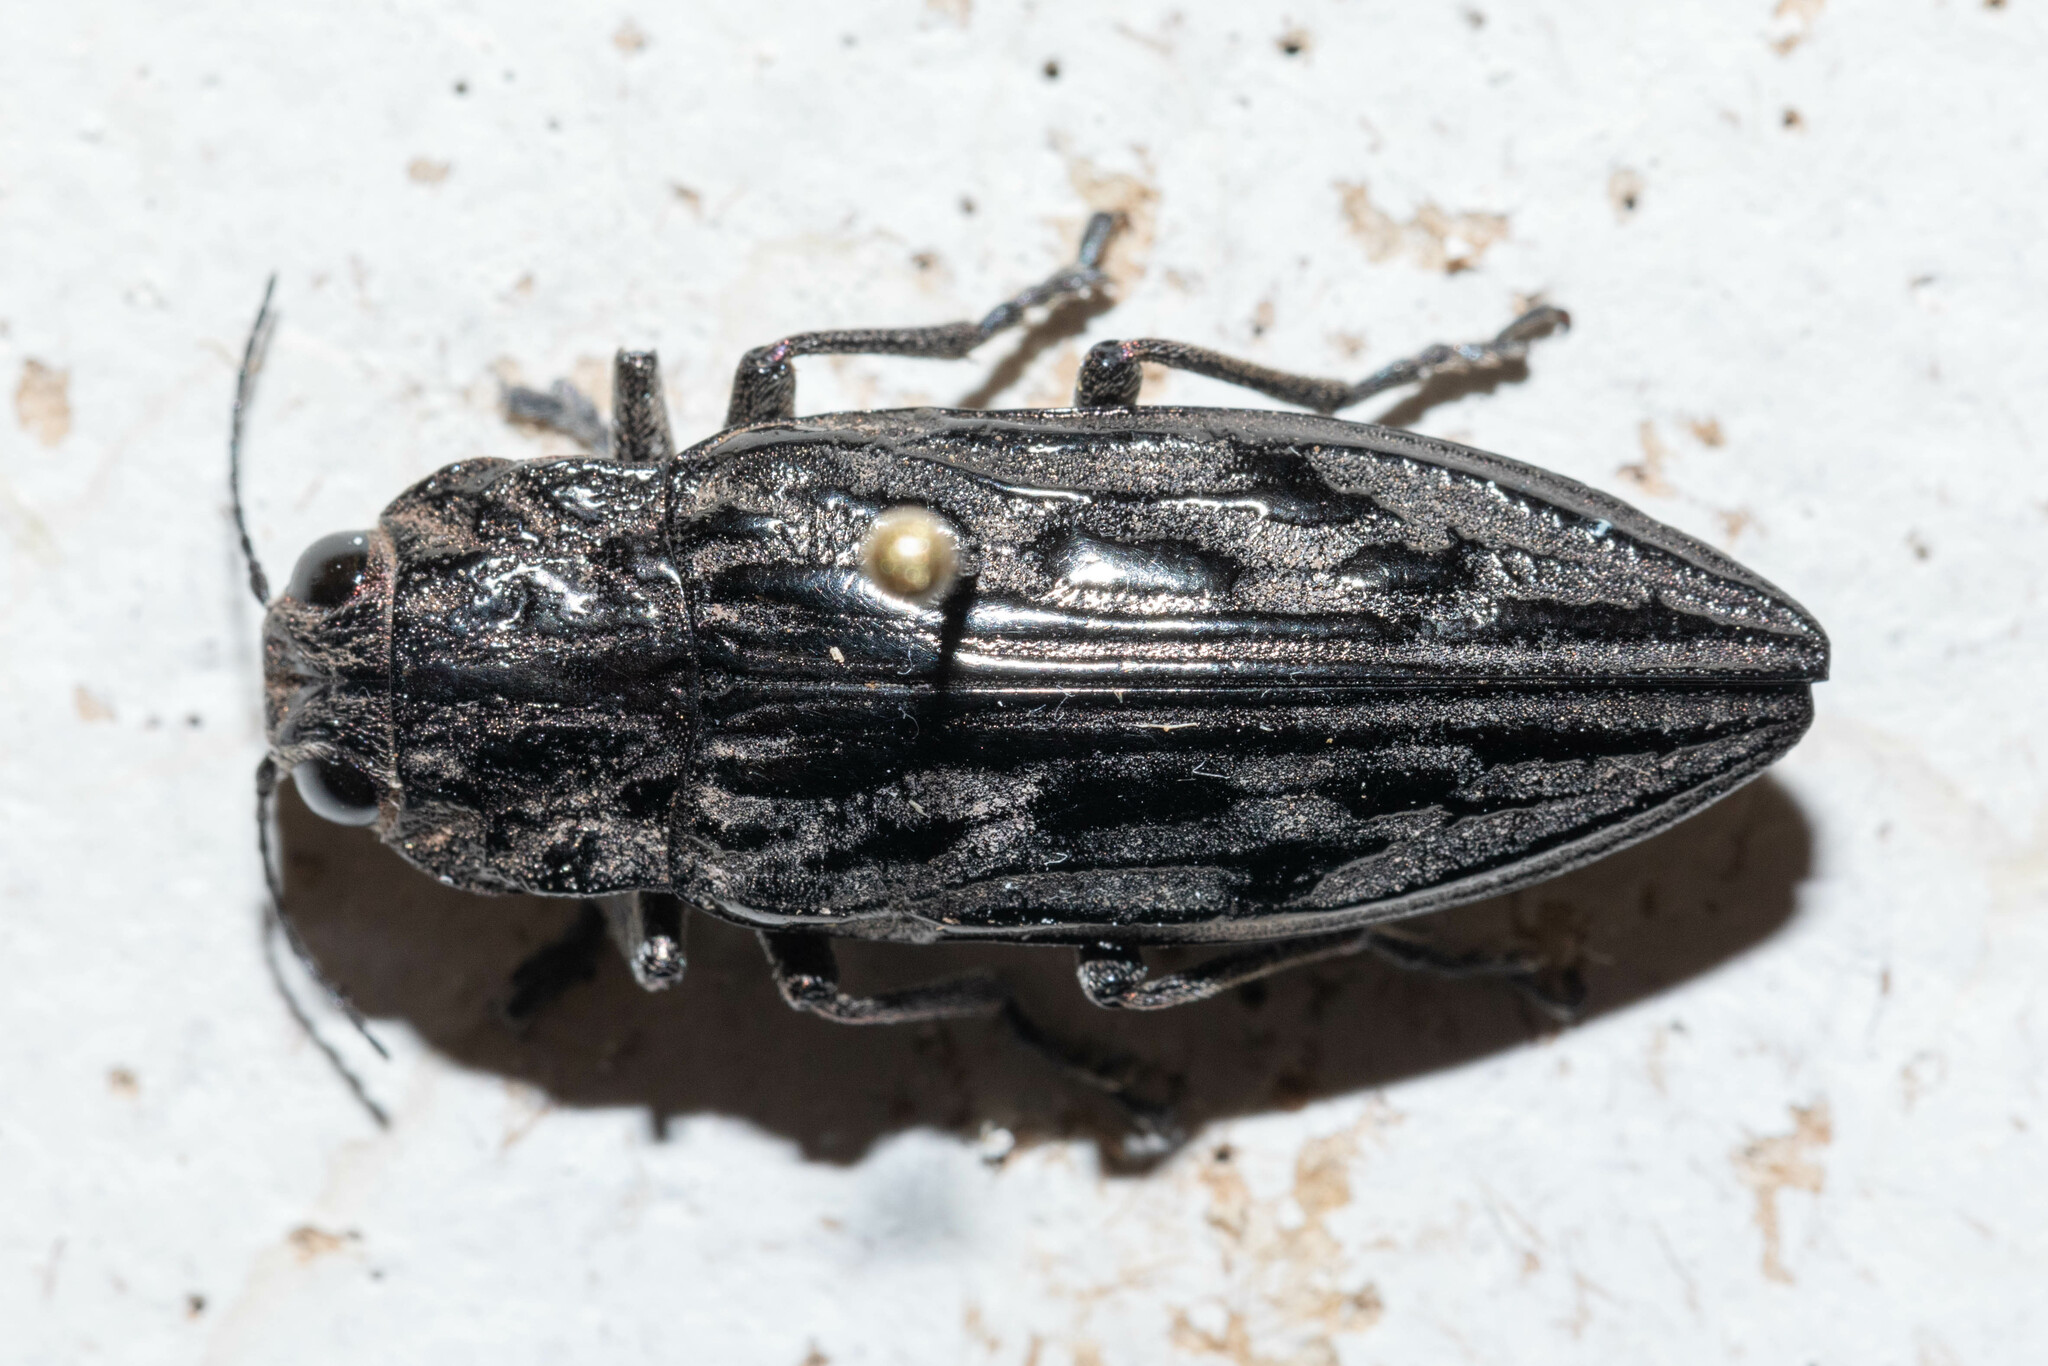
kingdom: Animalia
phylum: Arthropoda
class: Insecta
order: Coleoptera
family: Buprestidae
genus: Chalcophora
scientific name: Chalcophora angulicollis
